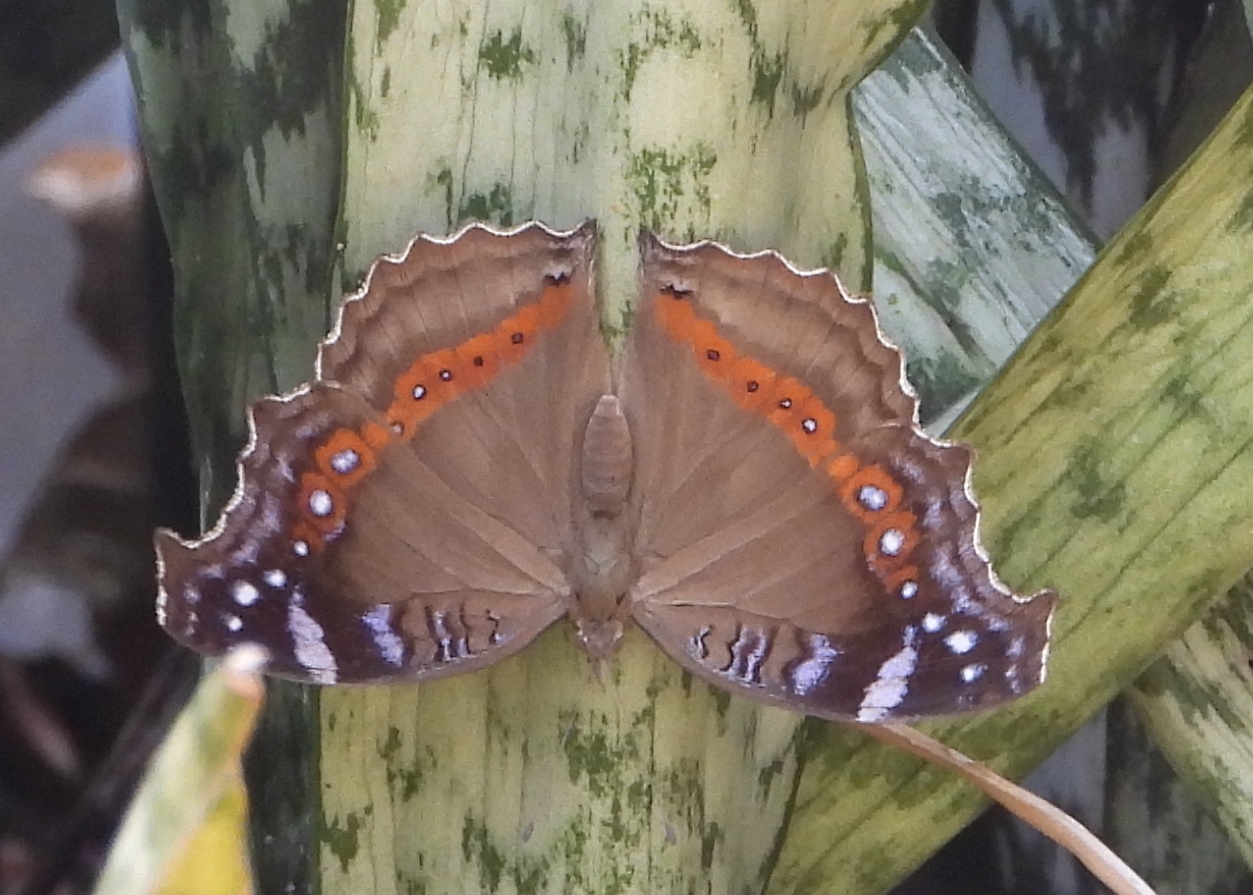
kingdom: Animalia
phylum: Arthropoda
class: Insecta
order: Lepidoptera
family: Nymphalidae
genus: Junonia
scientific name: Junonia archesia
